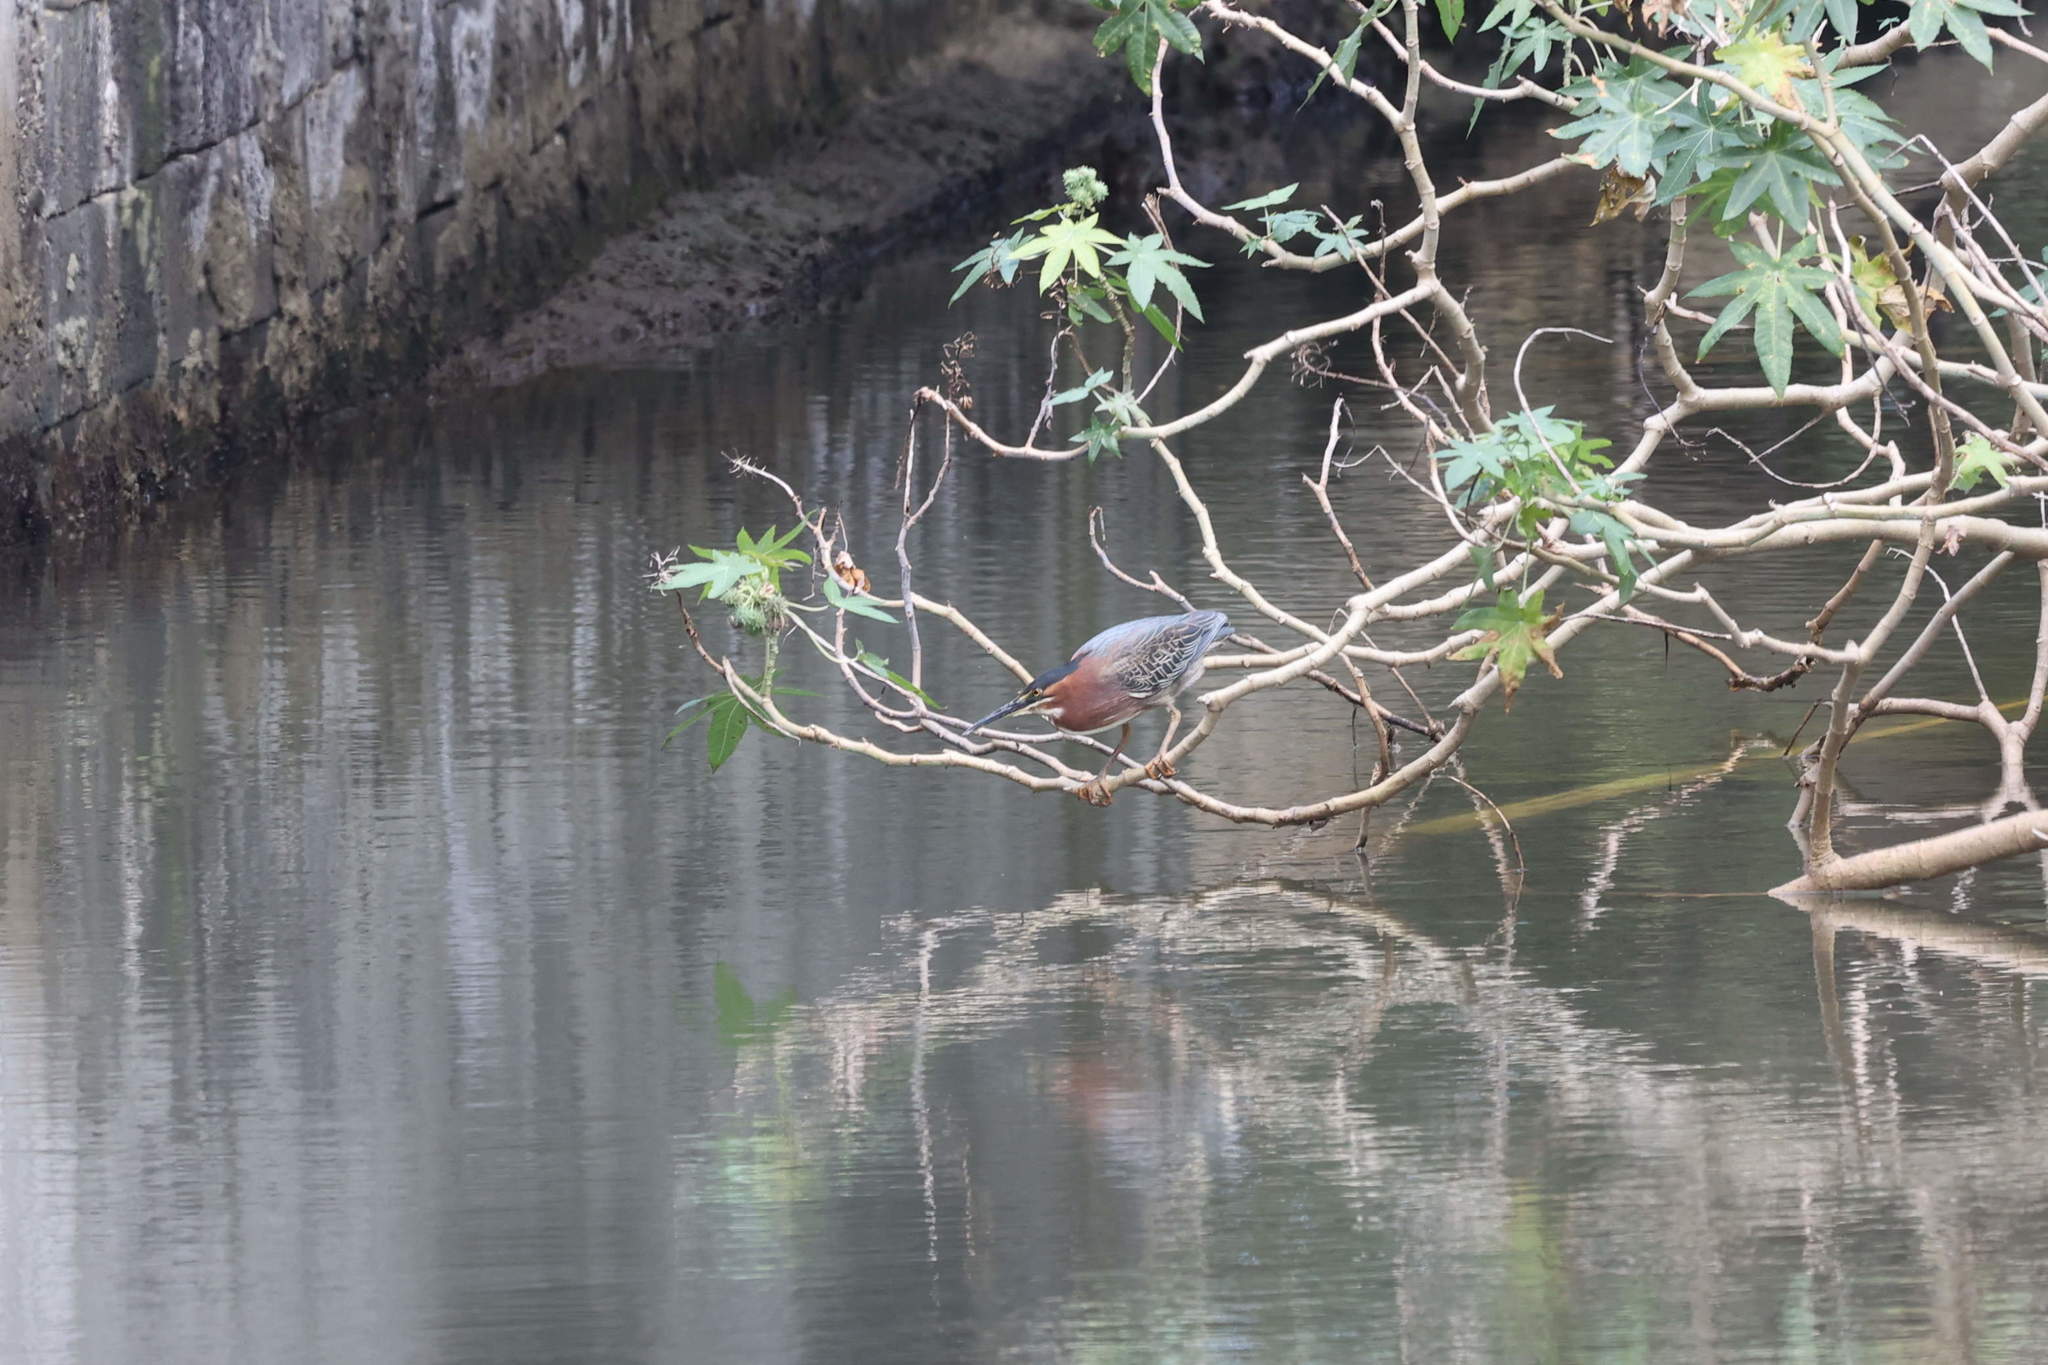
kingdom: Animalia
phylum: Chordata
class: Aves
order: Pelecaniformes
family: Ardeidae
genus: Butorides
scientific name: Butorides virescens
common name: Green heron
